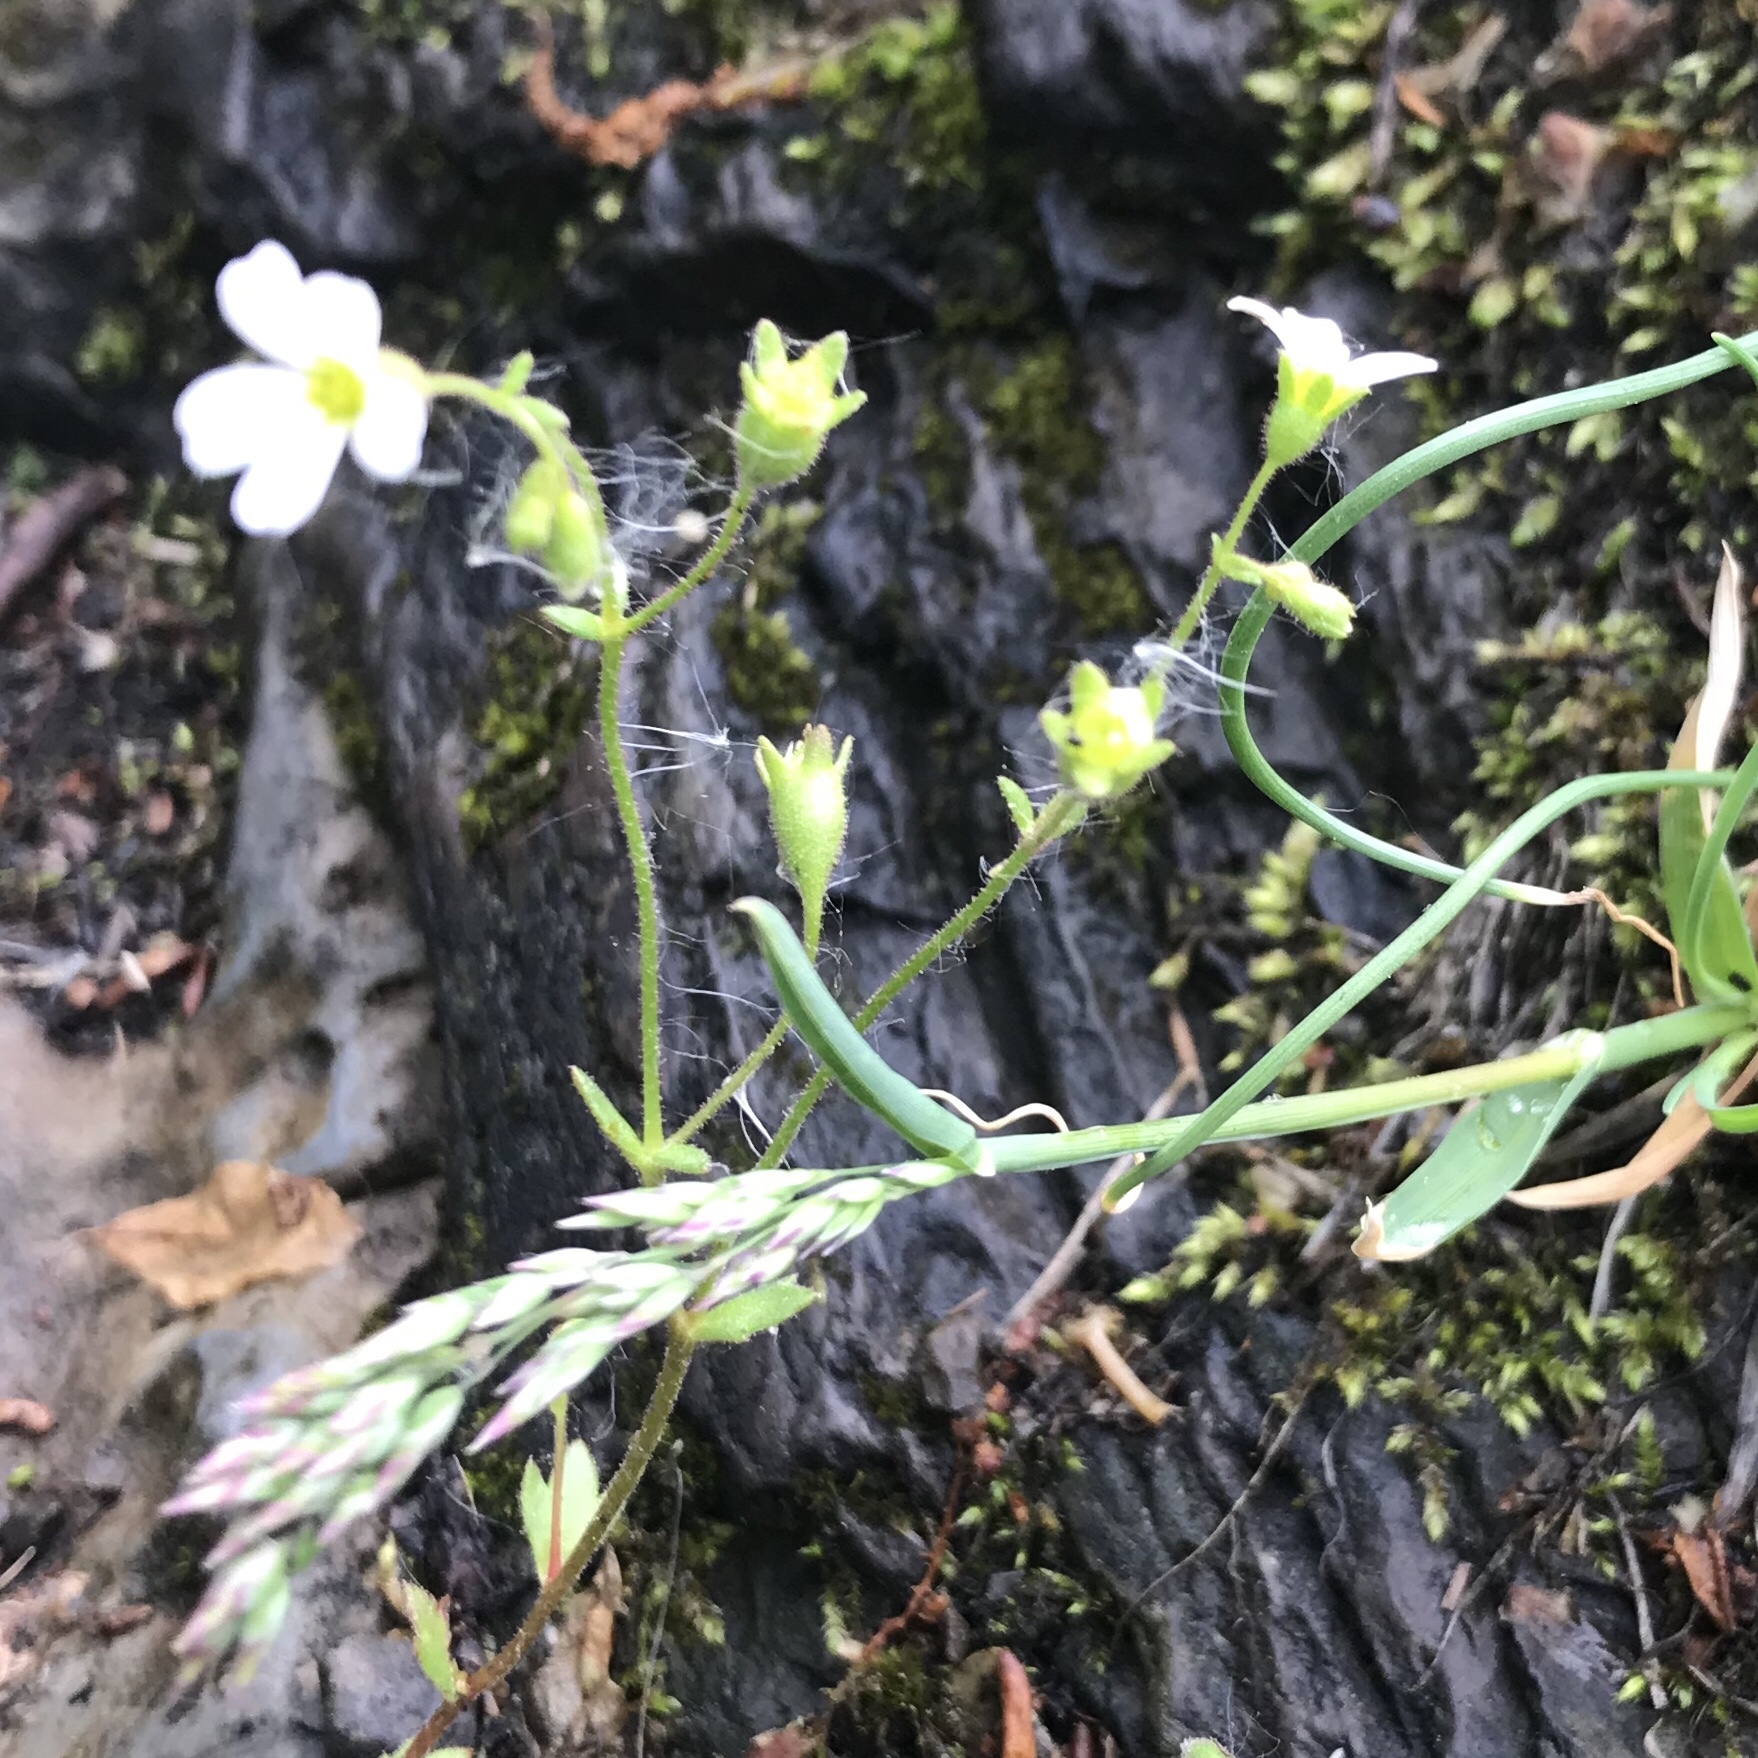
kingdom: Plantae
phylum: Tracheophyta
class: Magnoliopsida
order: Saxifragales
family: Saxifragaceae
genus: Saxifraga
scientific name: Saxifraga osloensis
